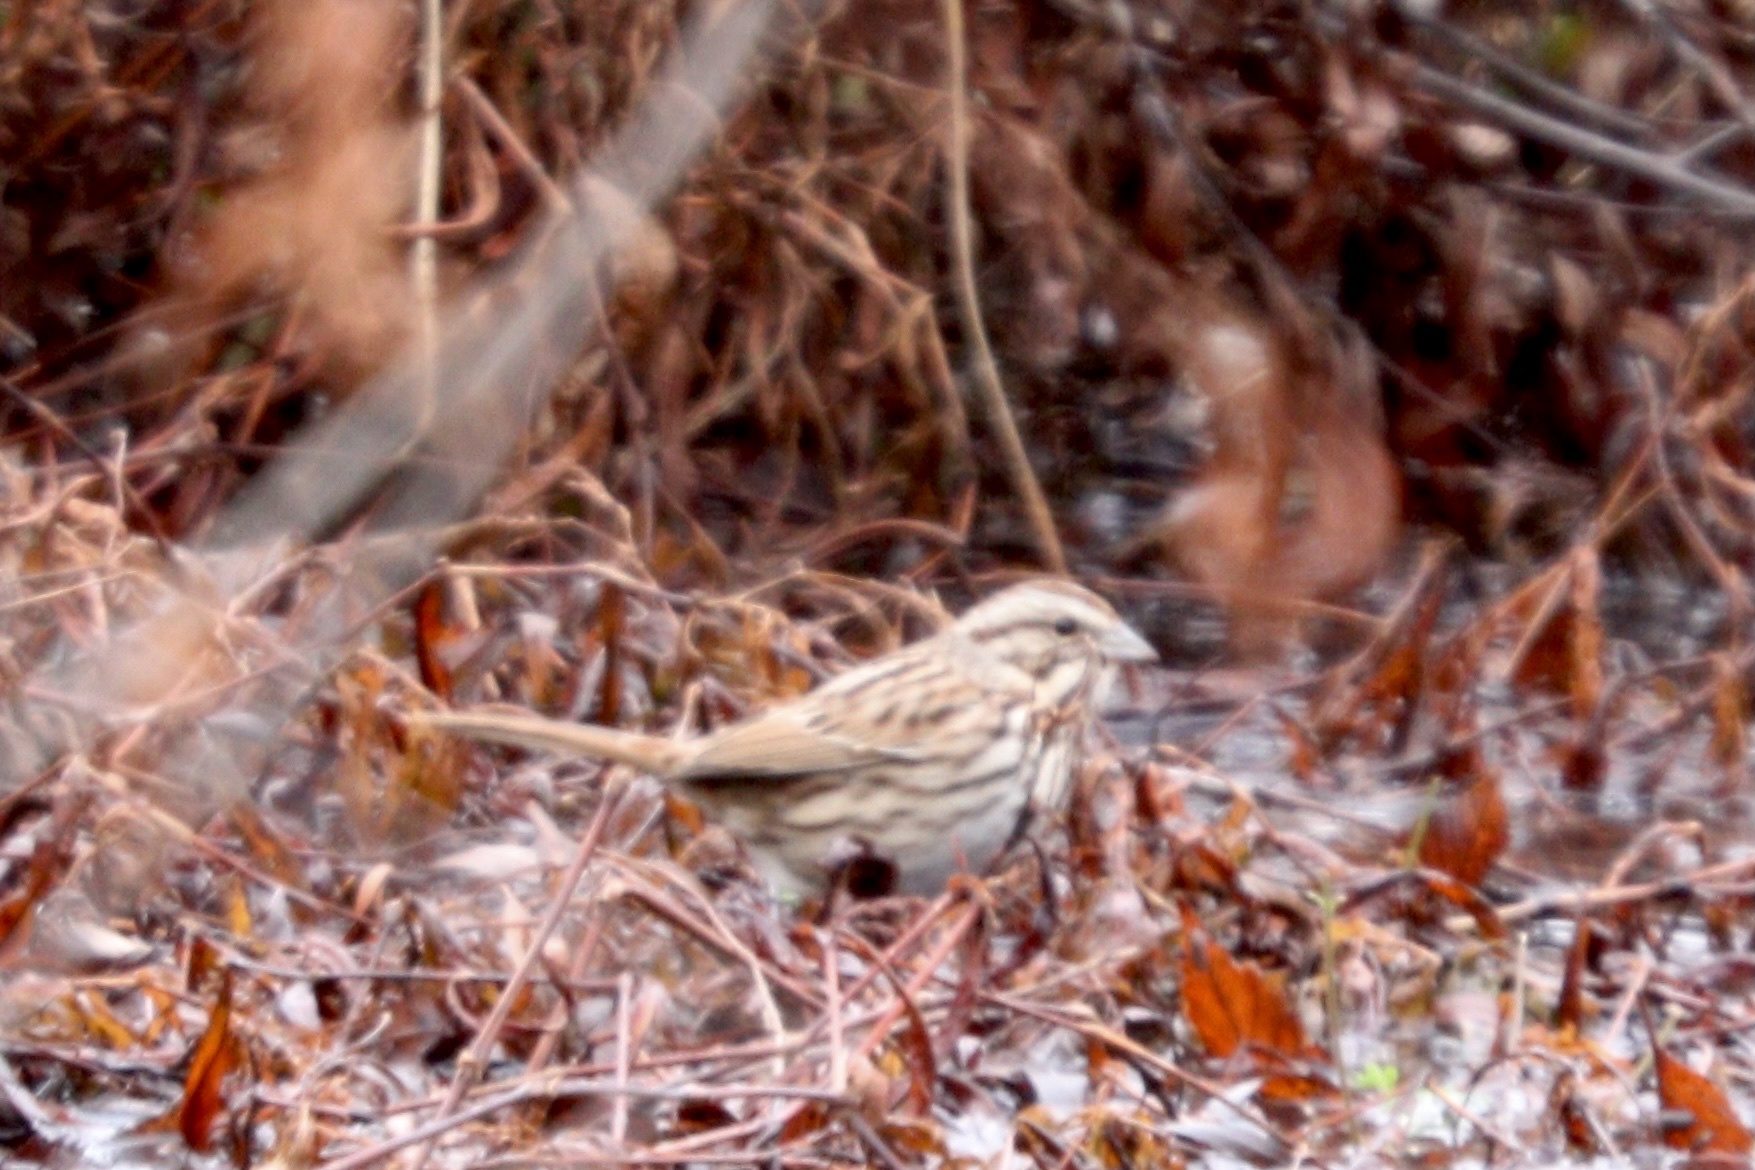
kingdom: Animalia
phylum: Chordata
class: Aves
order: Passeriformes
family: Passerellidae
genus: Melospiza
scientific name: Melospiza melodia
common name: Song sparrow
